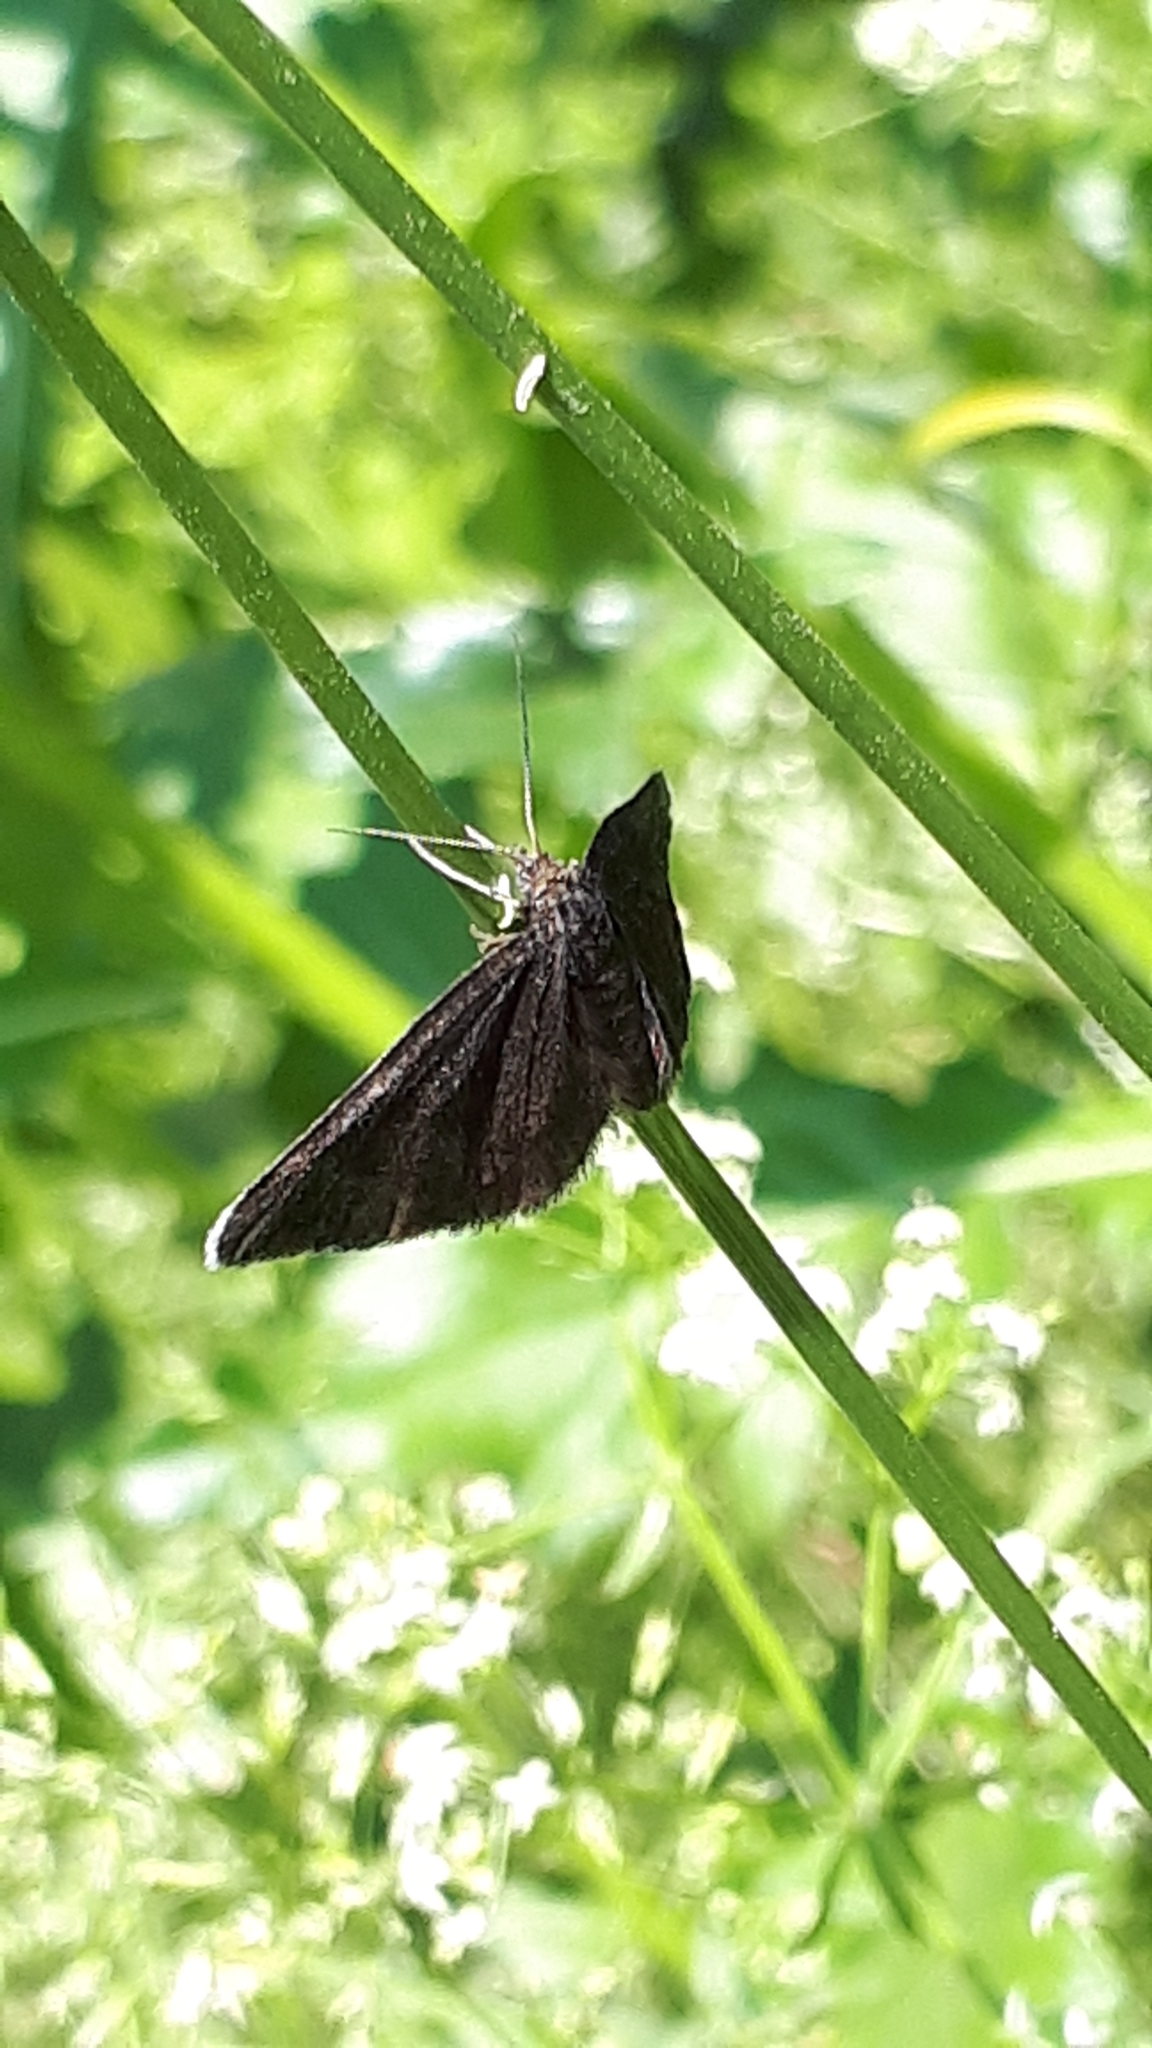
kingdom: Animalia
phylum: Arthropoda
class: Insecta
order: Lepidoptera
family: Geometridae
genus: Odezia
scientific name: Odezia atrata
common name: Chimney sweeper
